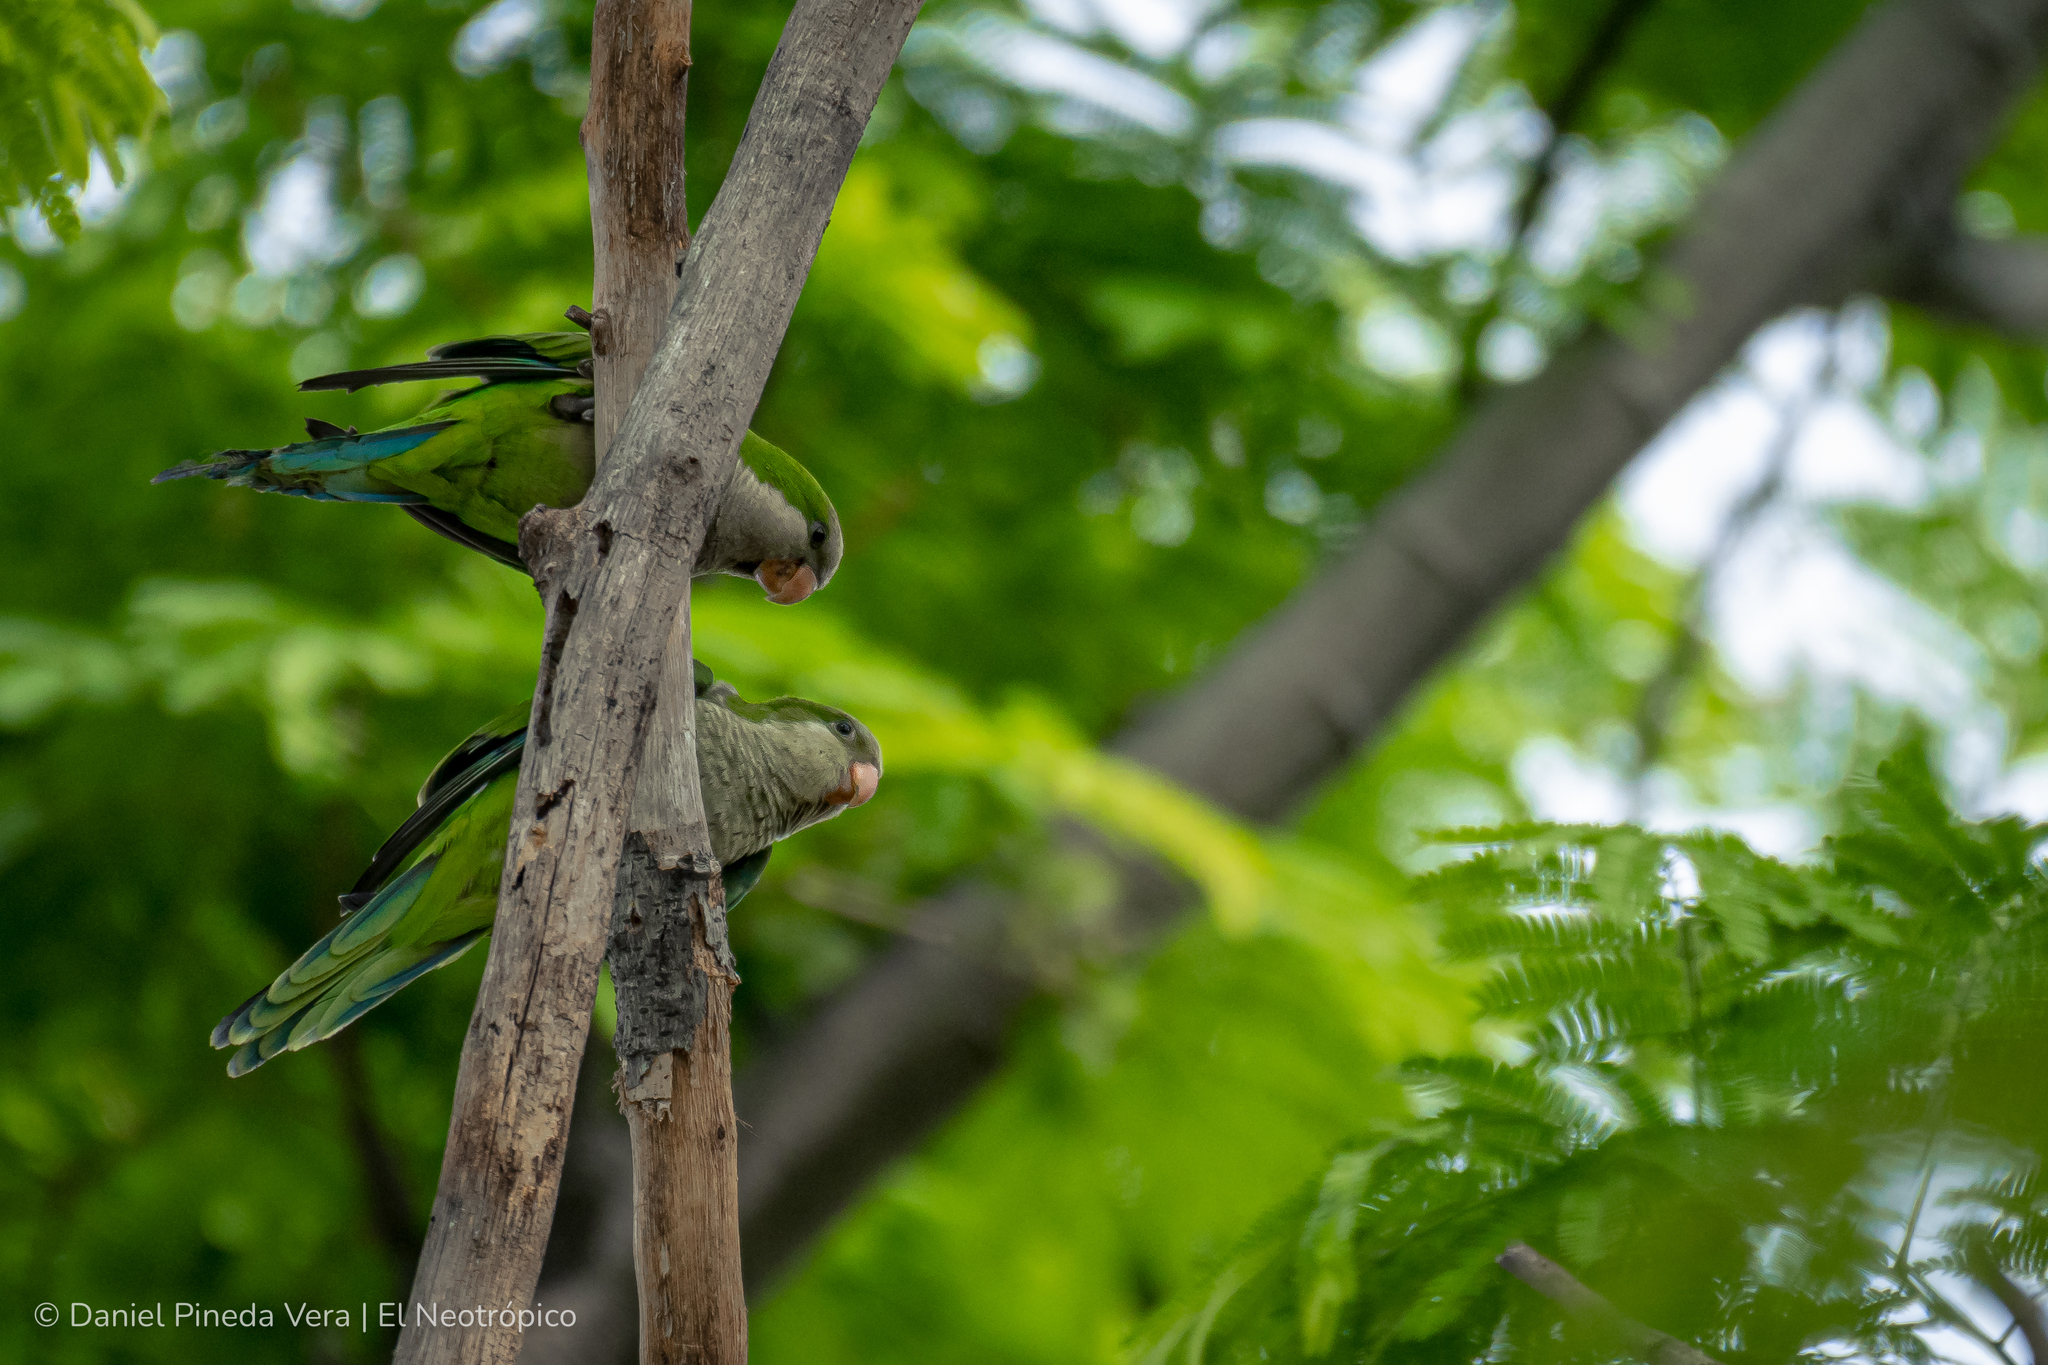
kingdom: Animalia
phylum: Chordata
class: Aves
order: Psittaciformes
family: Psittacidae
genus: Myiopsitta
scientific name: Myiopsitta monachus
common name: Monk parakeet
